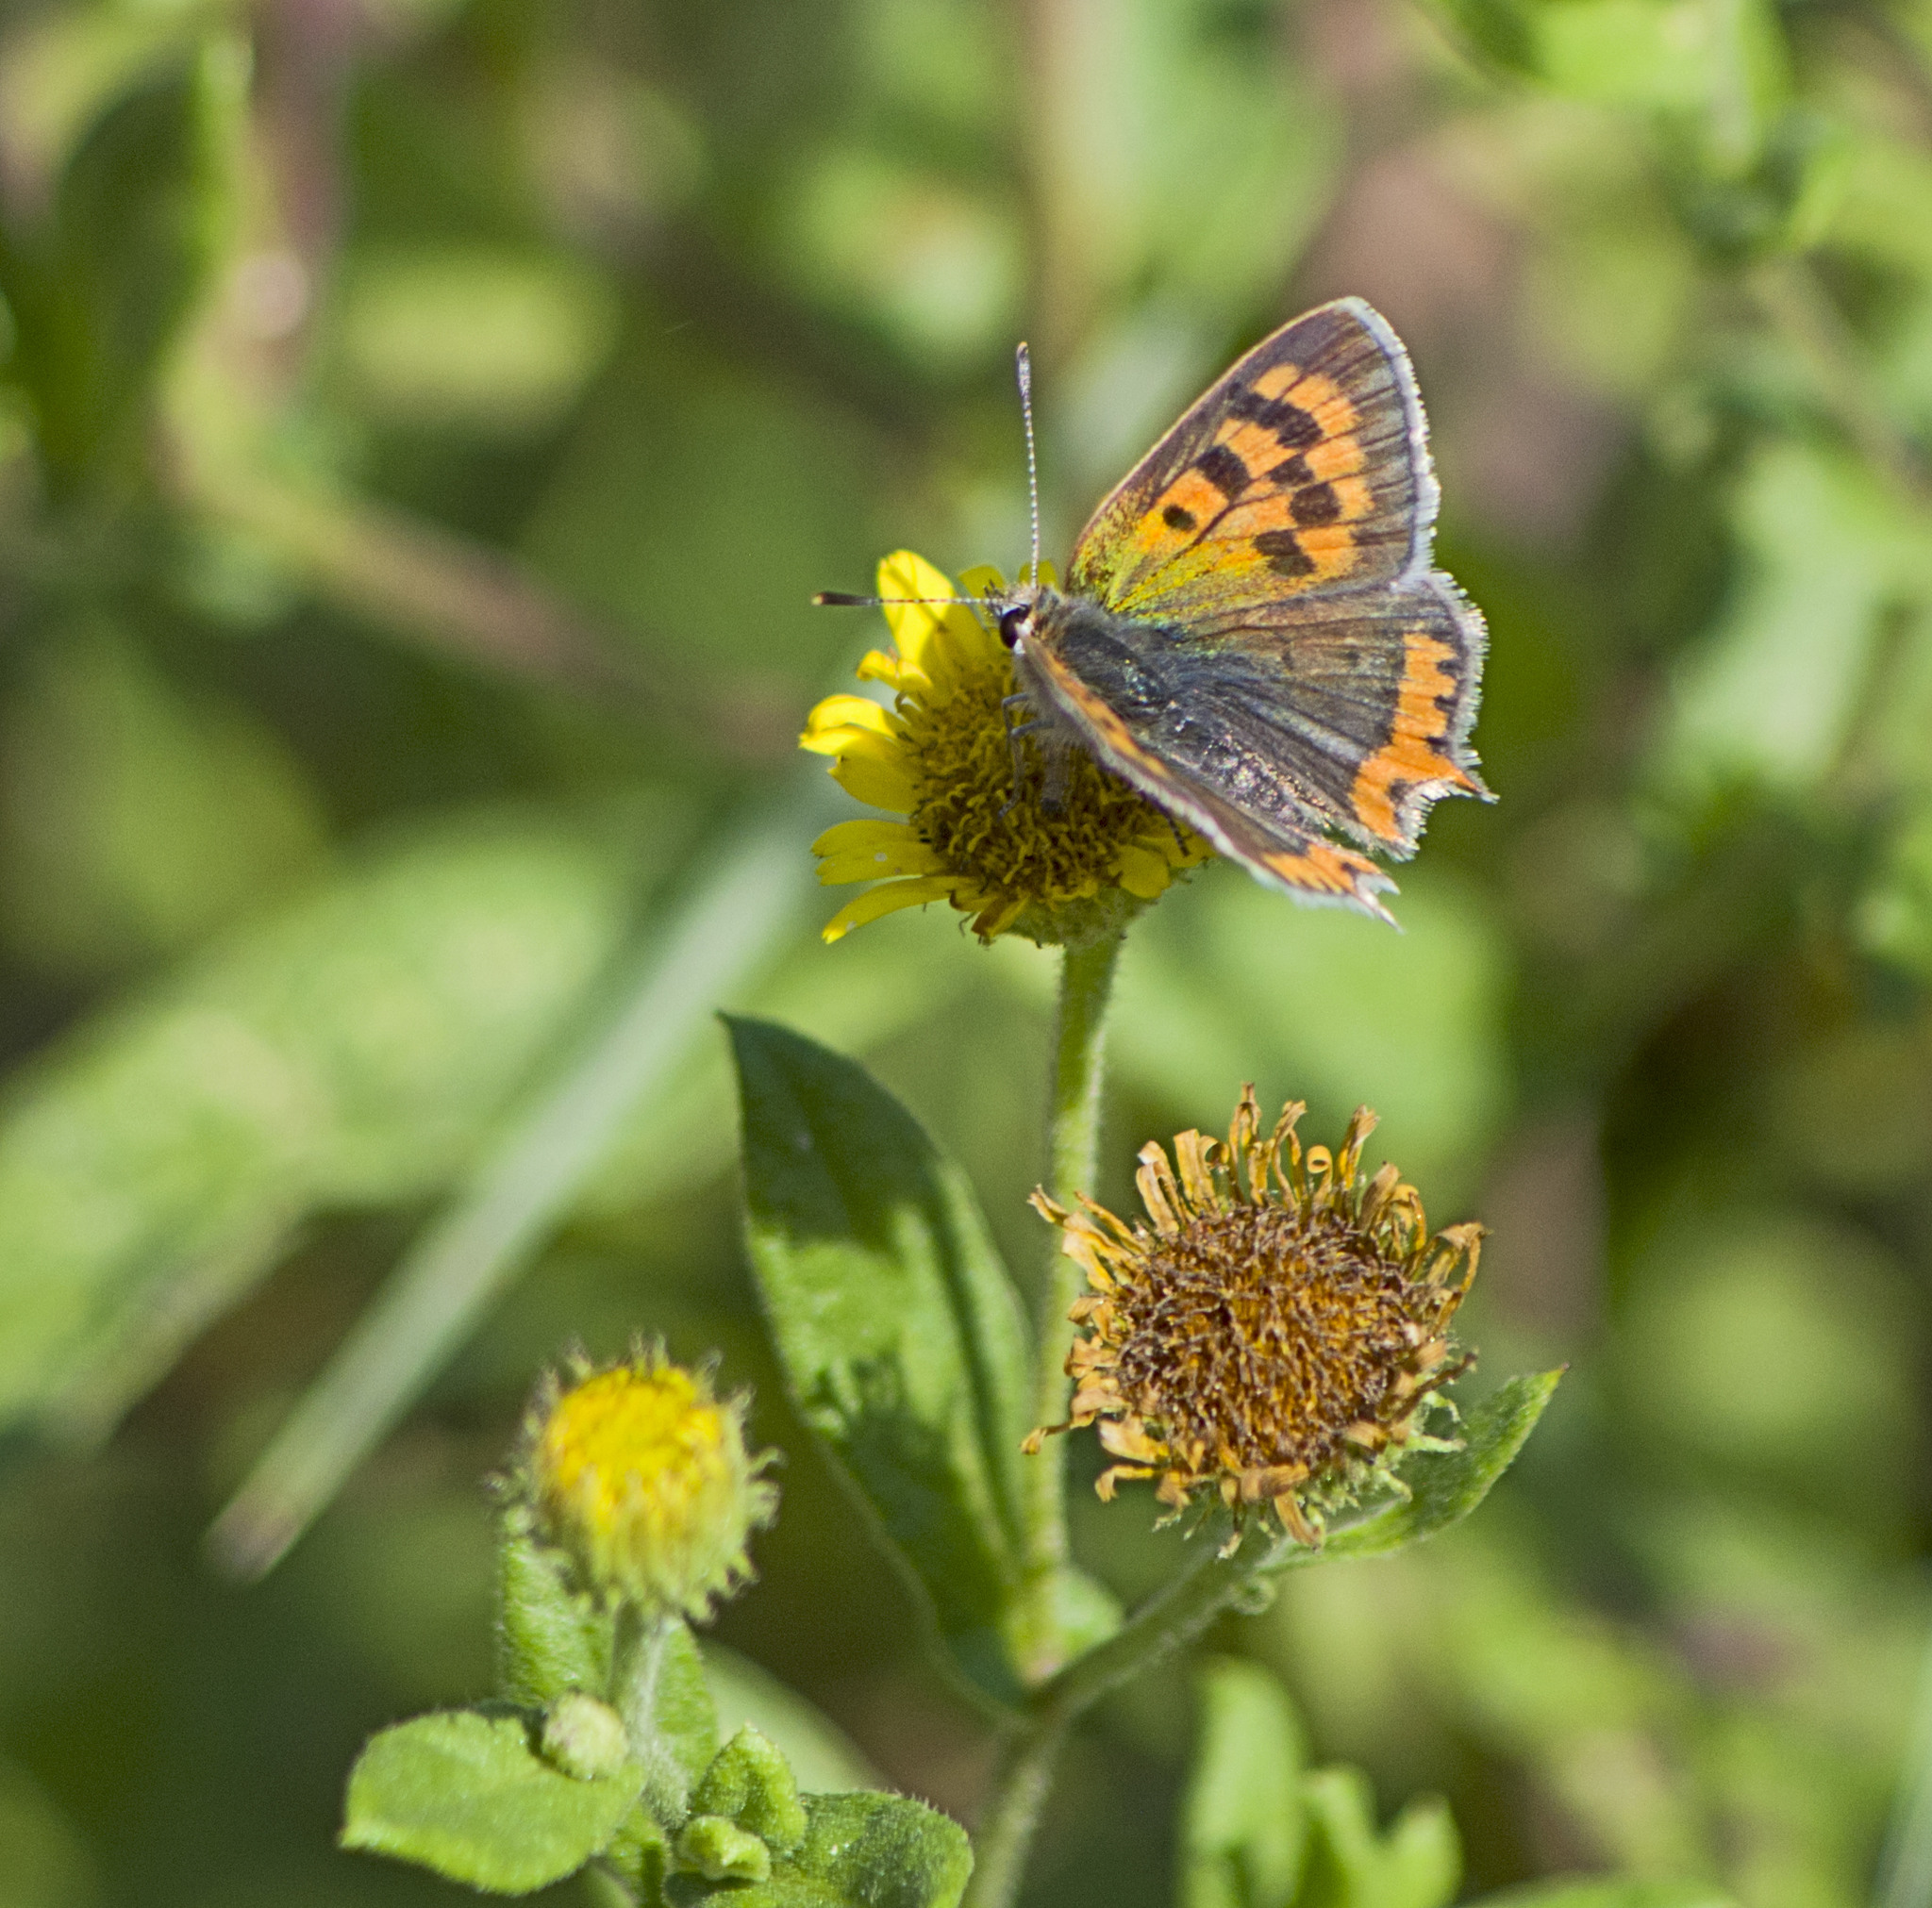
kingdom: Animalia
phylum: Arthropoda
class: Insecta
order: Lepidoptera
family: Lycaenidae
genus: Lycaena
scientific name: Lycaena phlaeas
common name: Small copper
